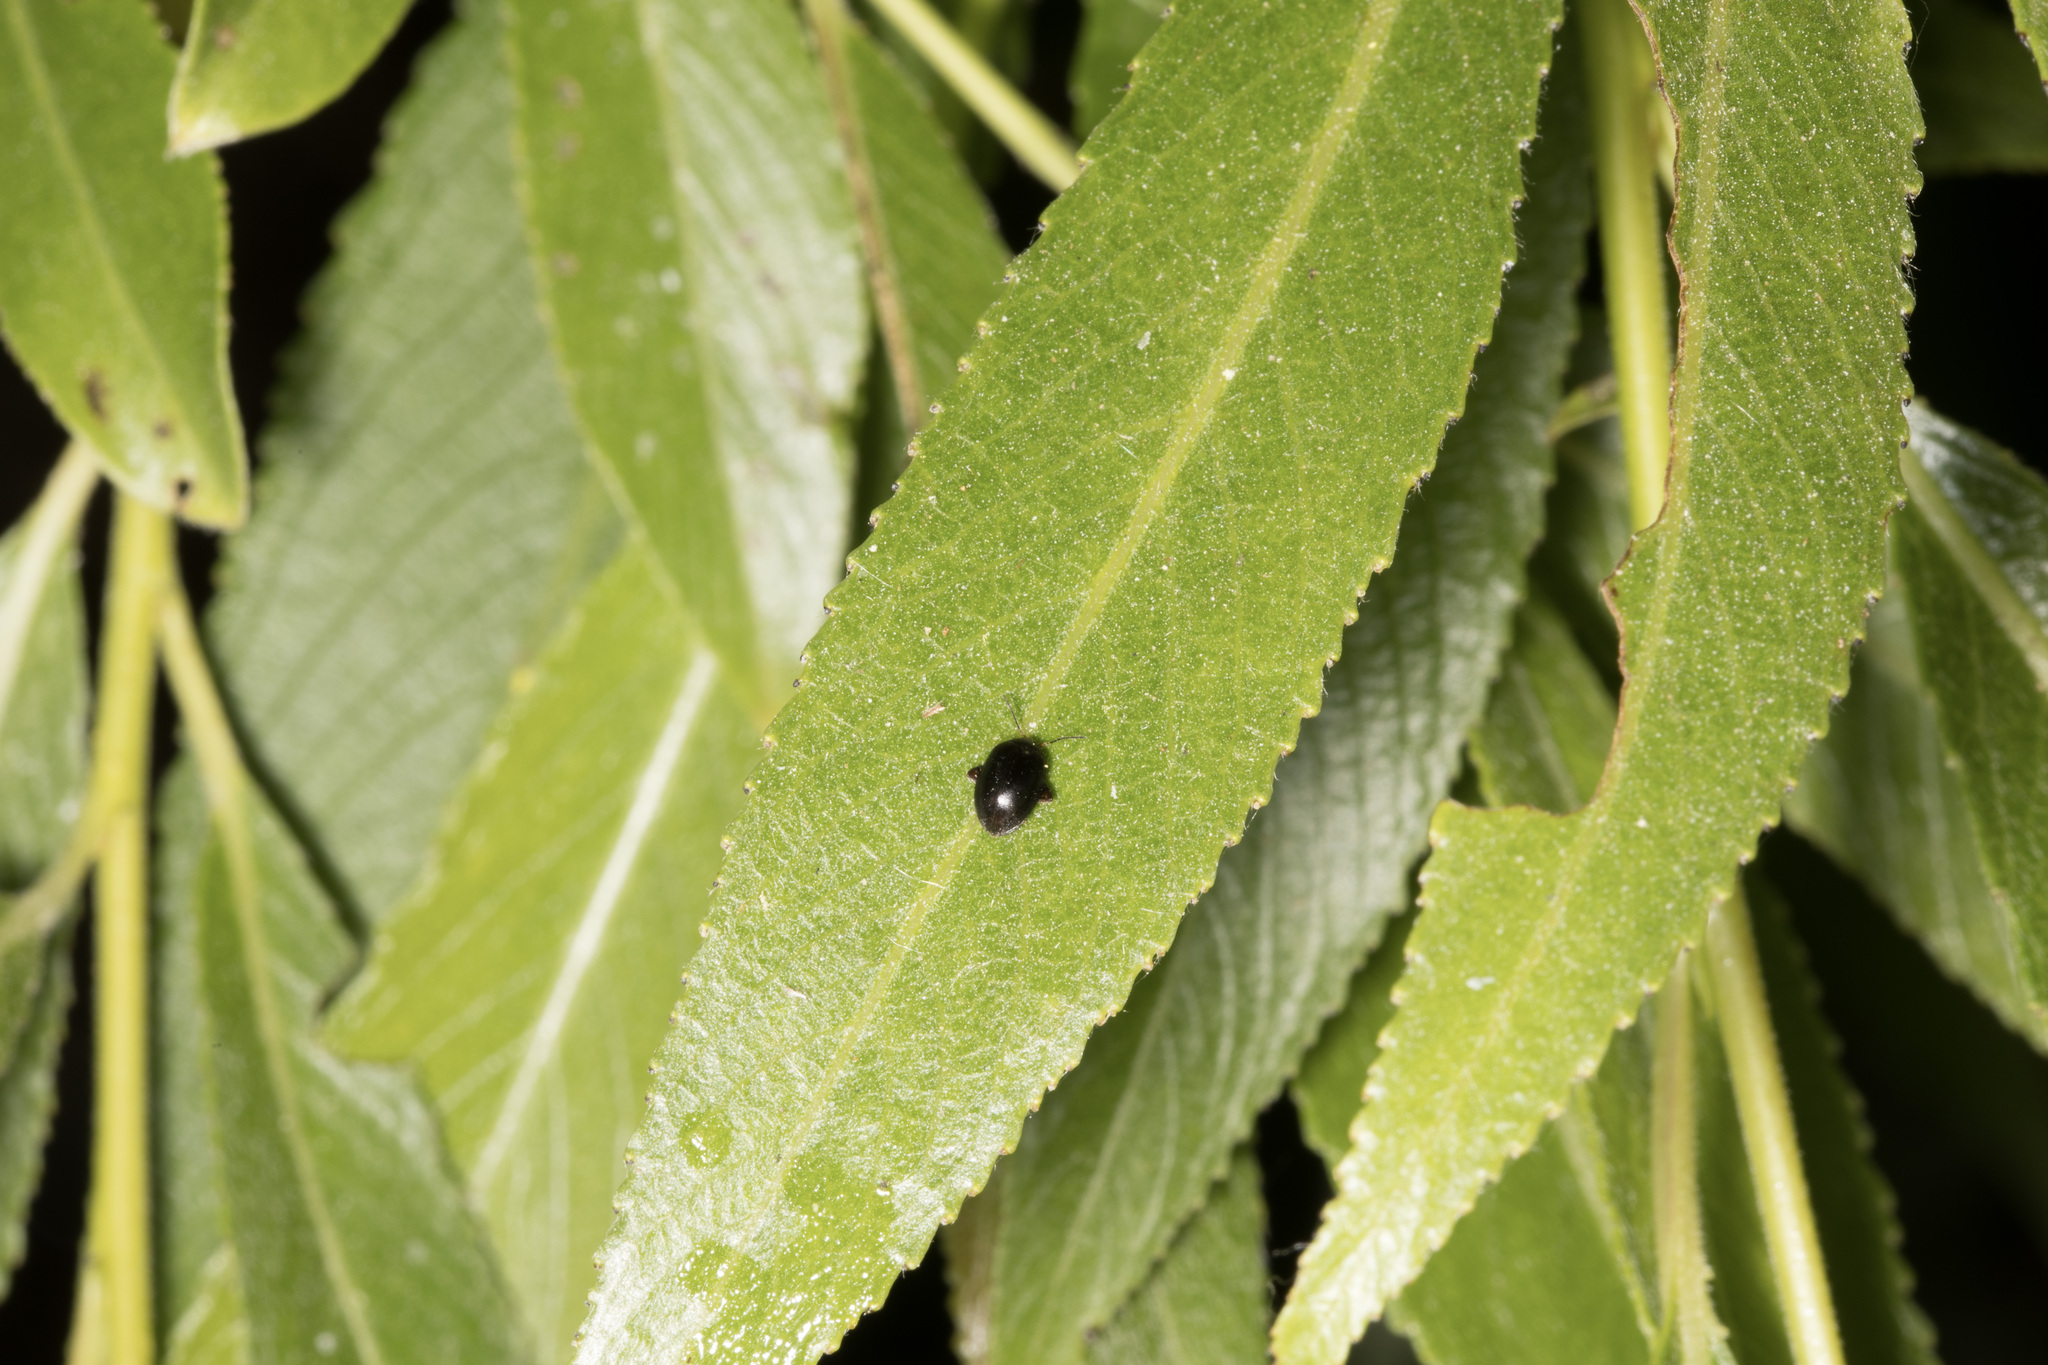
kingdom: Animalia
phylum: Arthropoda
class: Insecta
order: Coleoptera
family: Scirtidae
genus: Scirtes
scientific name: Scirtes hemisphaericus
